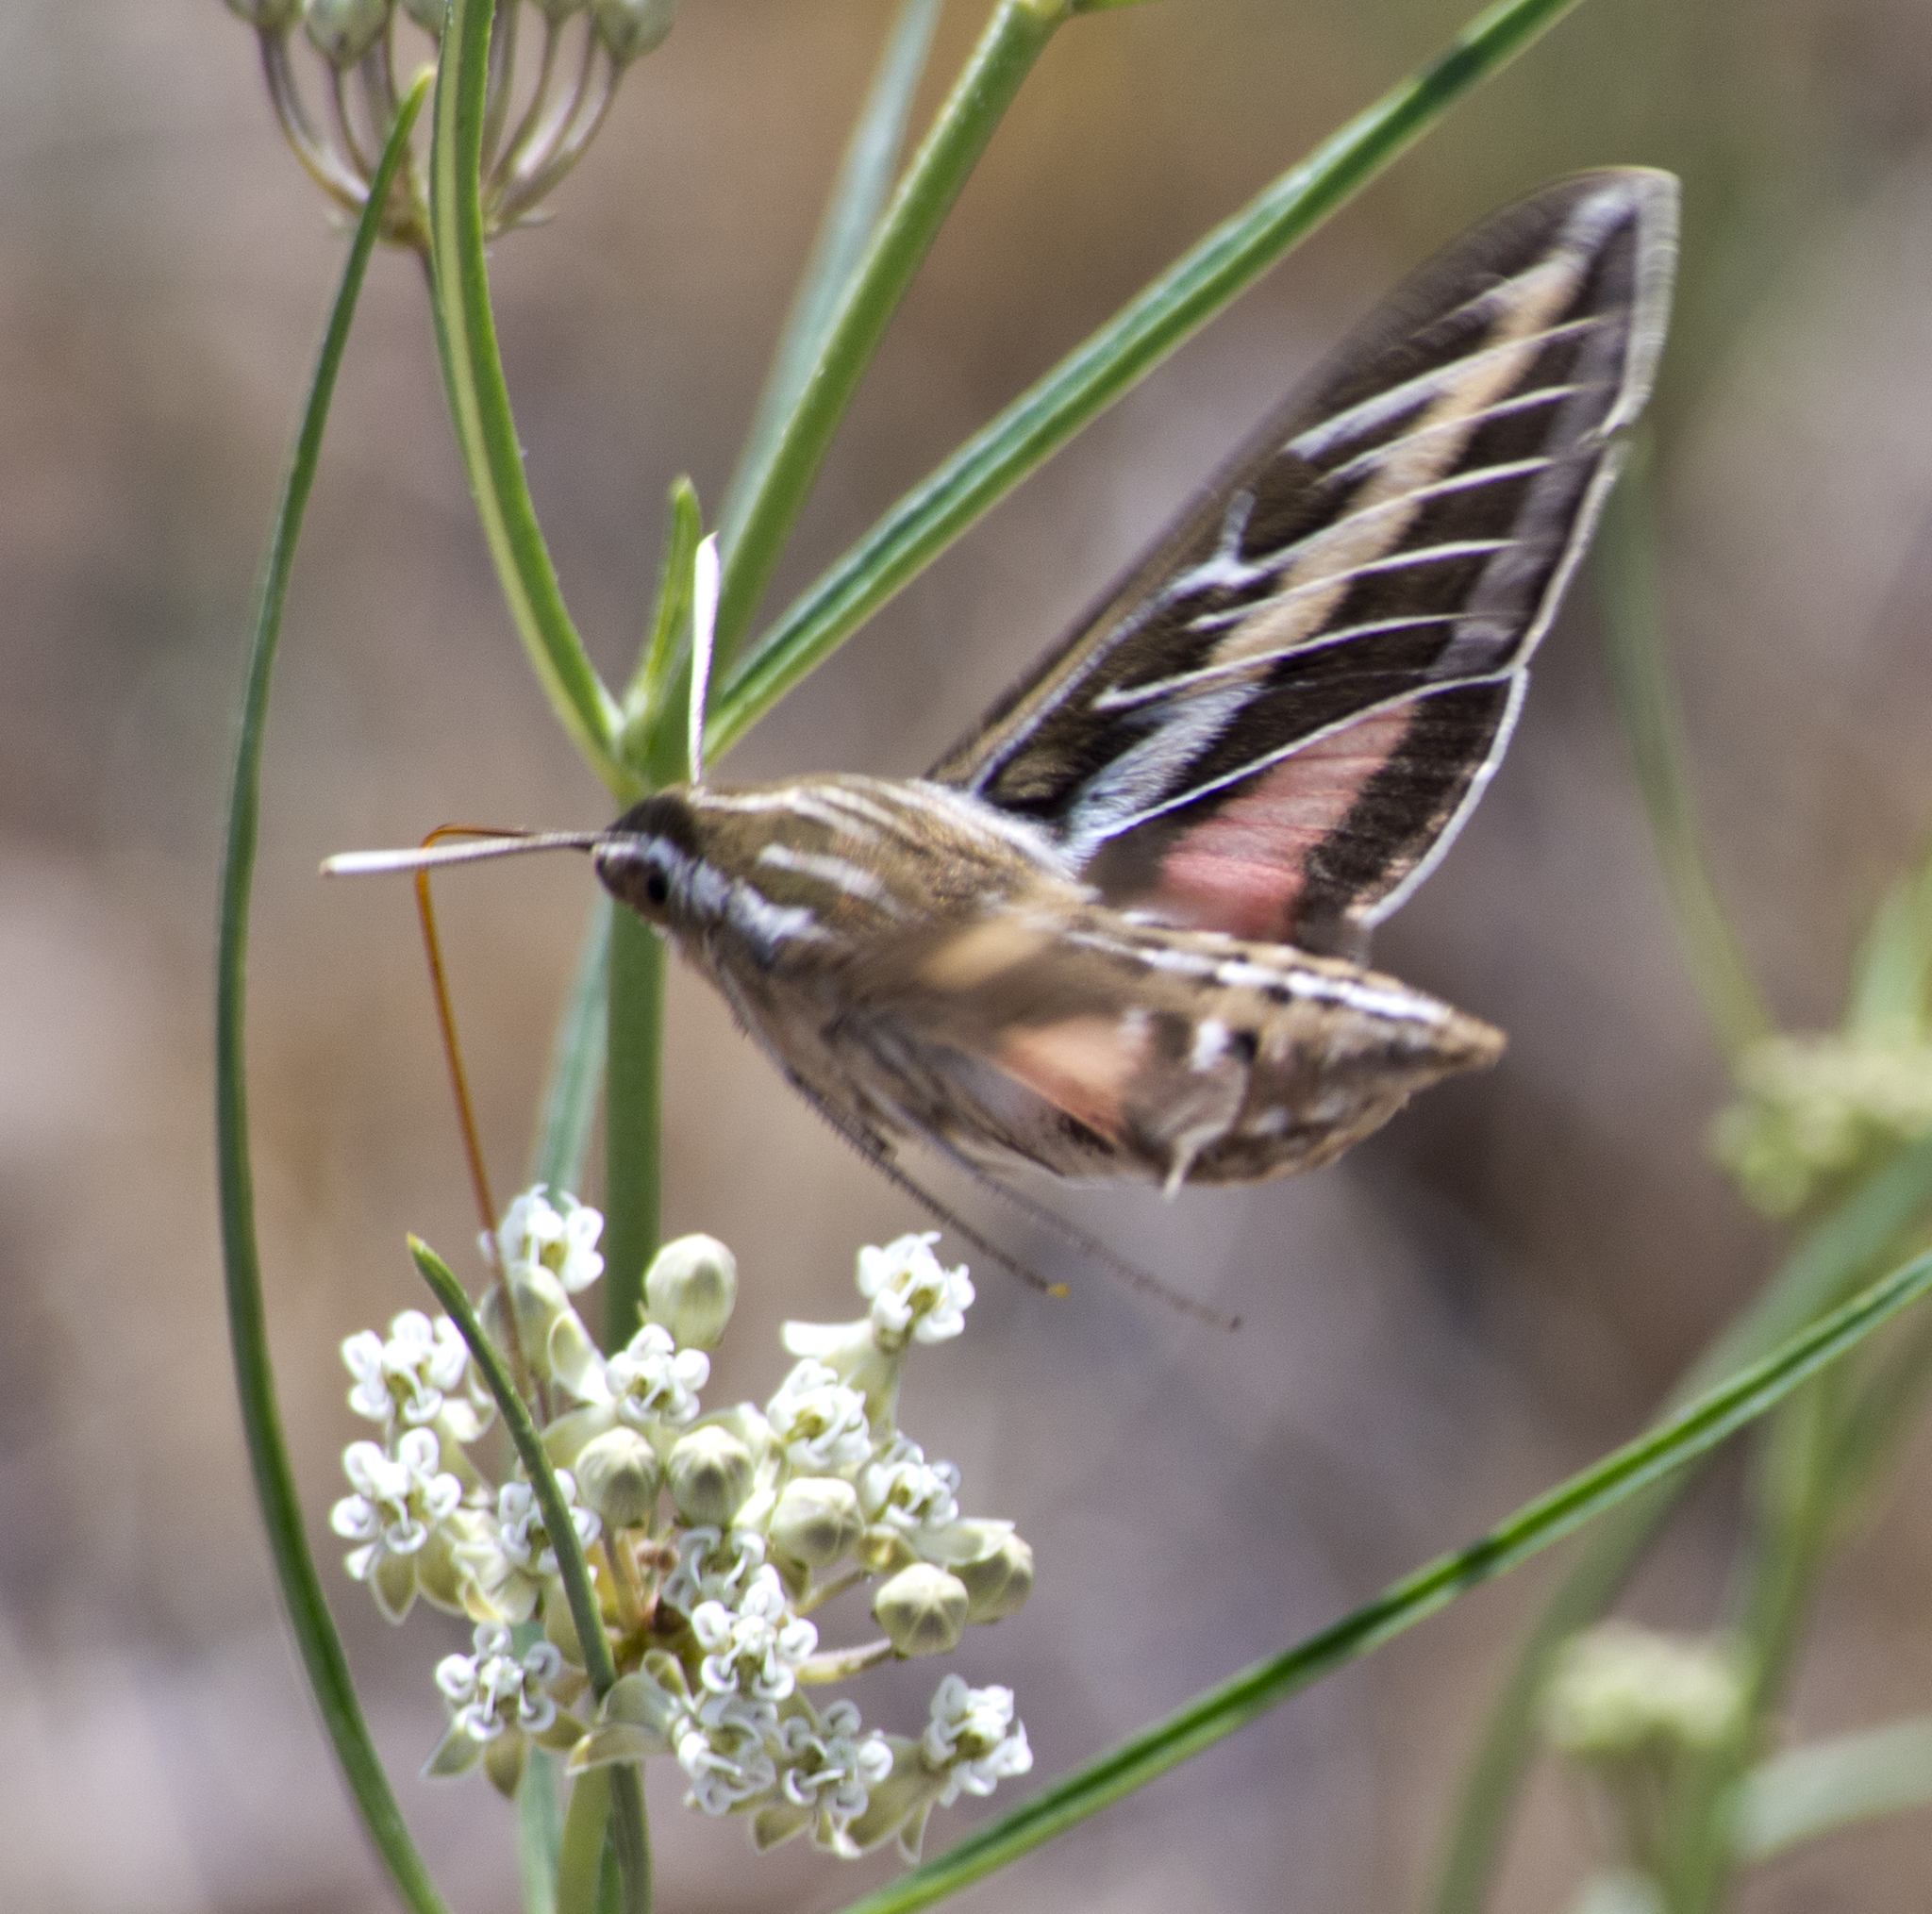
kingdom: Plantae
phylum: Tracheophyta
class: Magnoliopsida
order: Gentianales
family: Apocynaceae
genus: Asclepias
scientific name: Asclepias subverticillata
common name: Horsetail milkweed
